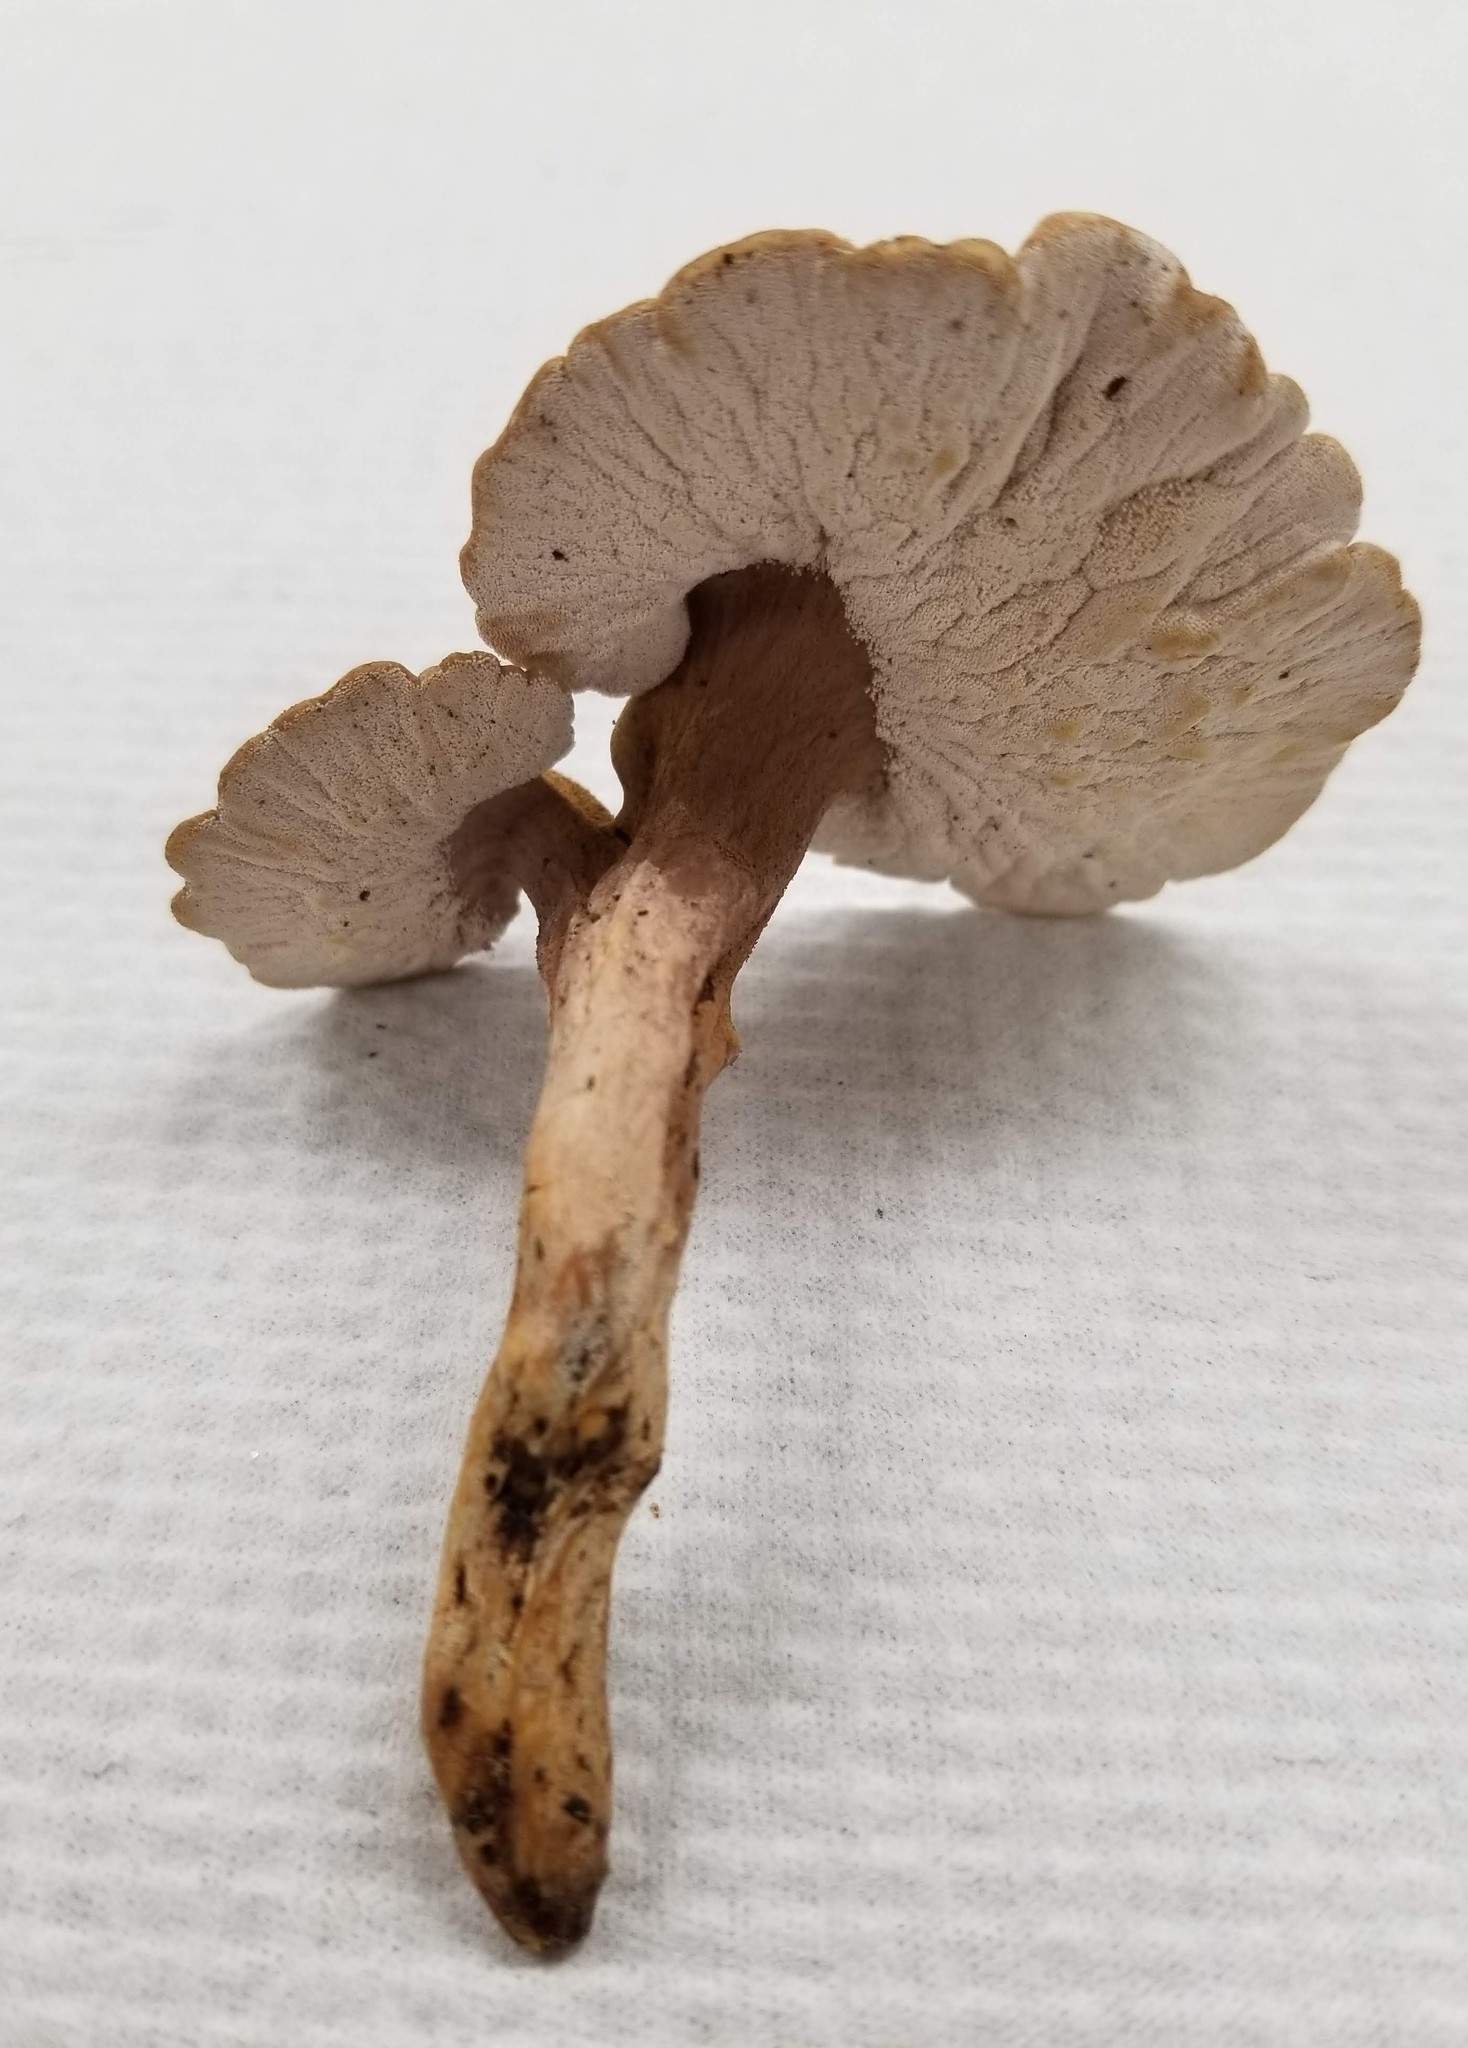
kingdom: Fungi
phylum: Basidiomycota
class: Agaricomycetes
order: Agaricales
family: Fistulinaceae
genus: Pseudofistulina
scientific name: Pseudofistulina radicata
